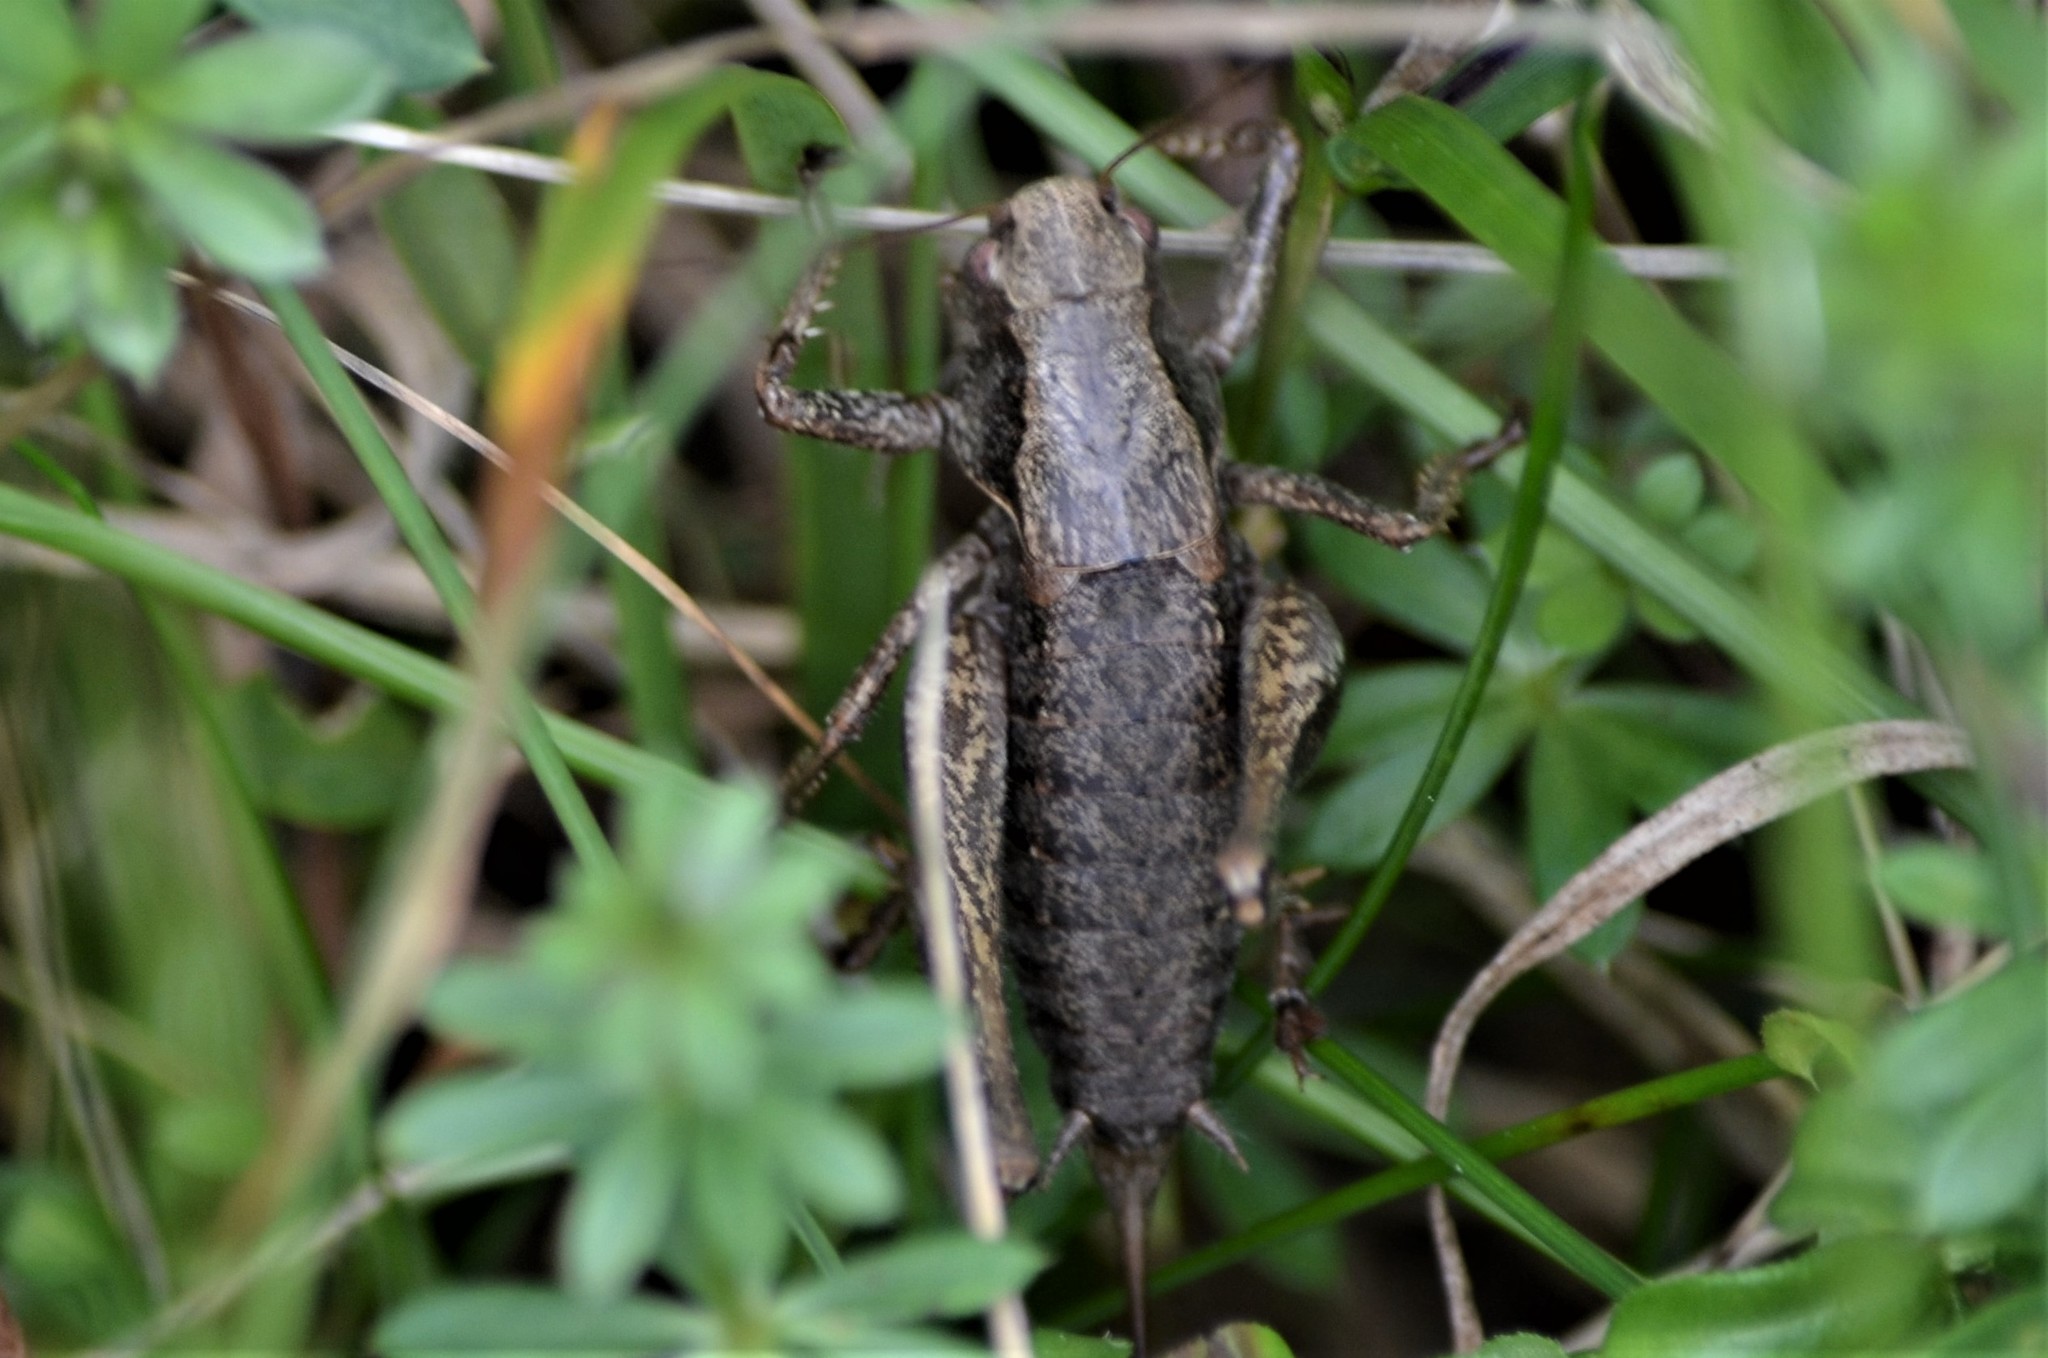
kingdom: Animalia
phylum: Arthropoda
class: Insecta
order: Orthoptera
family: Tettigoniidae
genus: Pholidoptera
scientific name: Pholidoptera griseoaptera
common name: Dark bush-cricket
